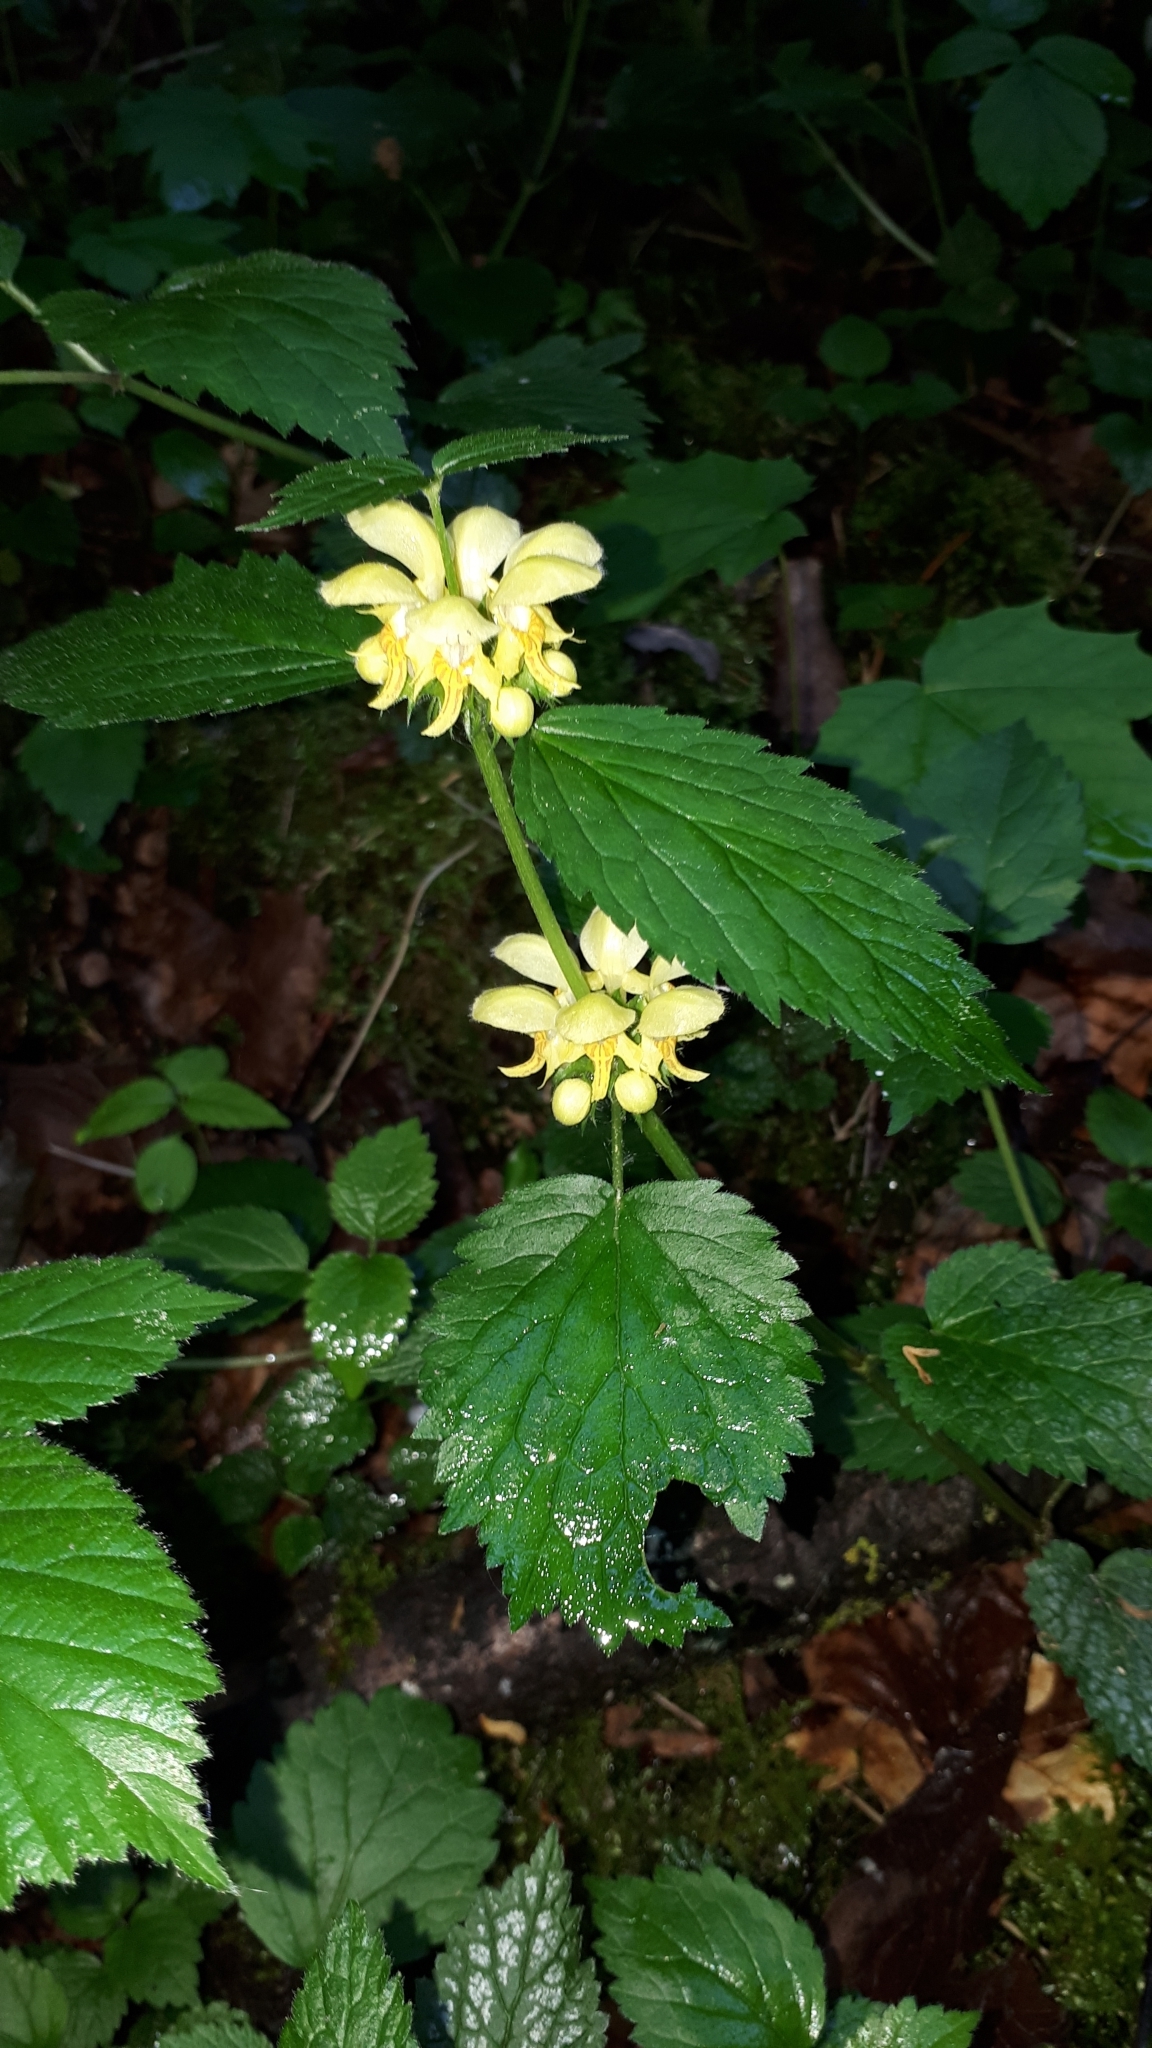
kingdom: Plantae
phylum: Tracheophyta
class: Magnoliopsida
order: Lamiales
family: Lamiaceae
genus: Lamium
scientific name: Lamium galeobdolon
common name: Yellow archangel
